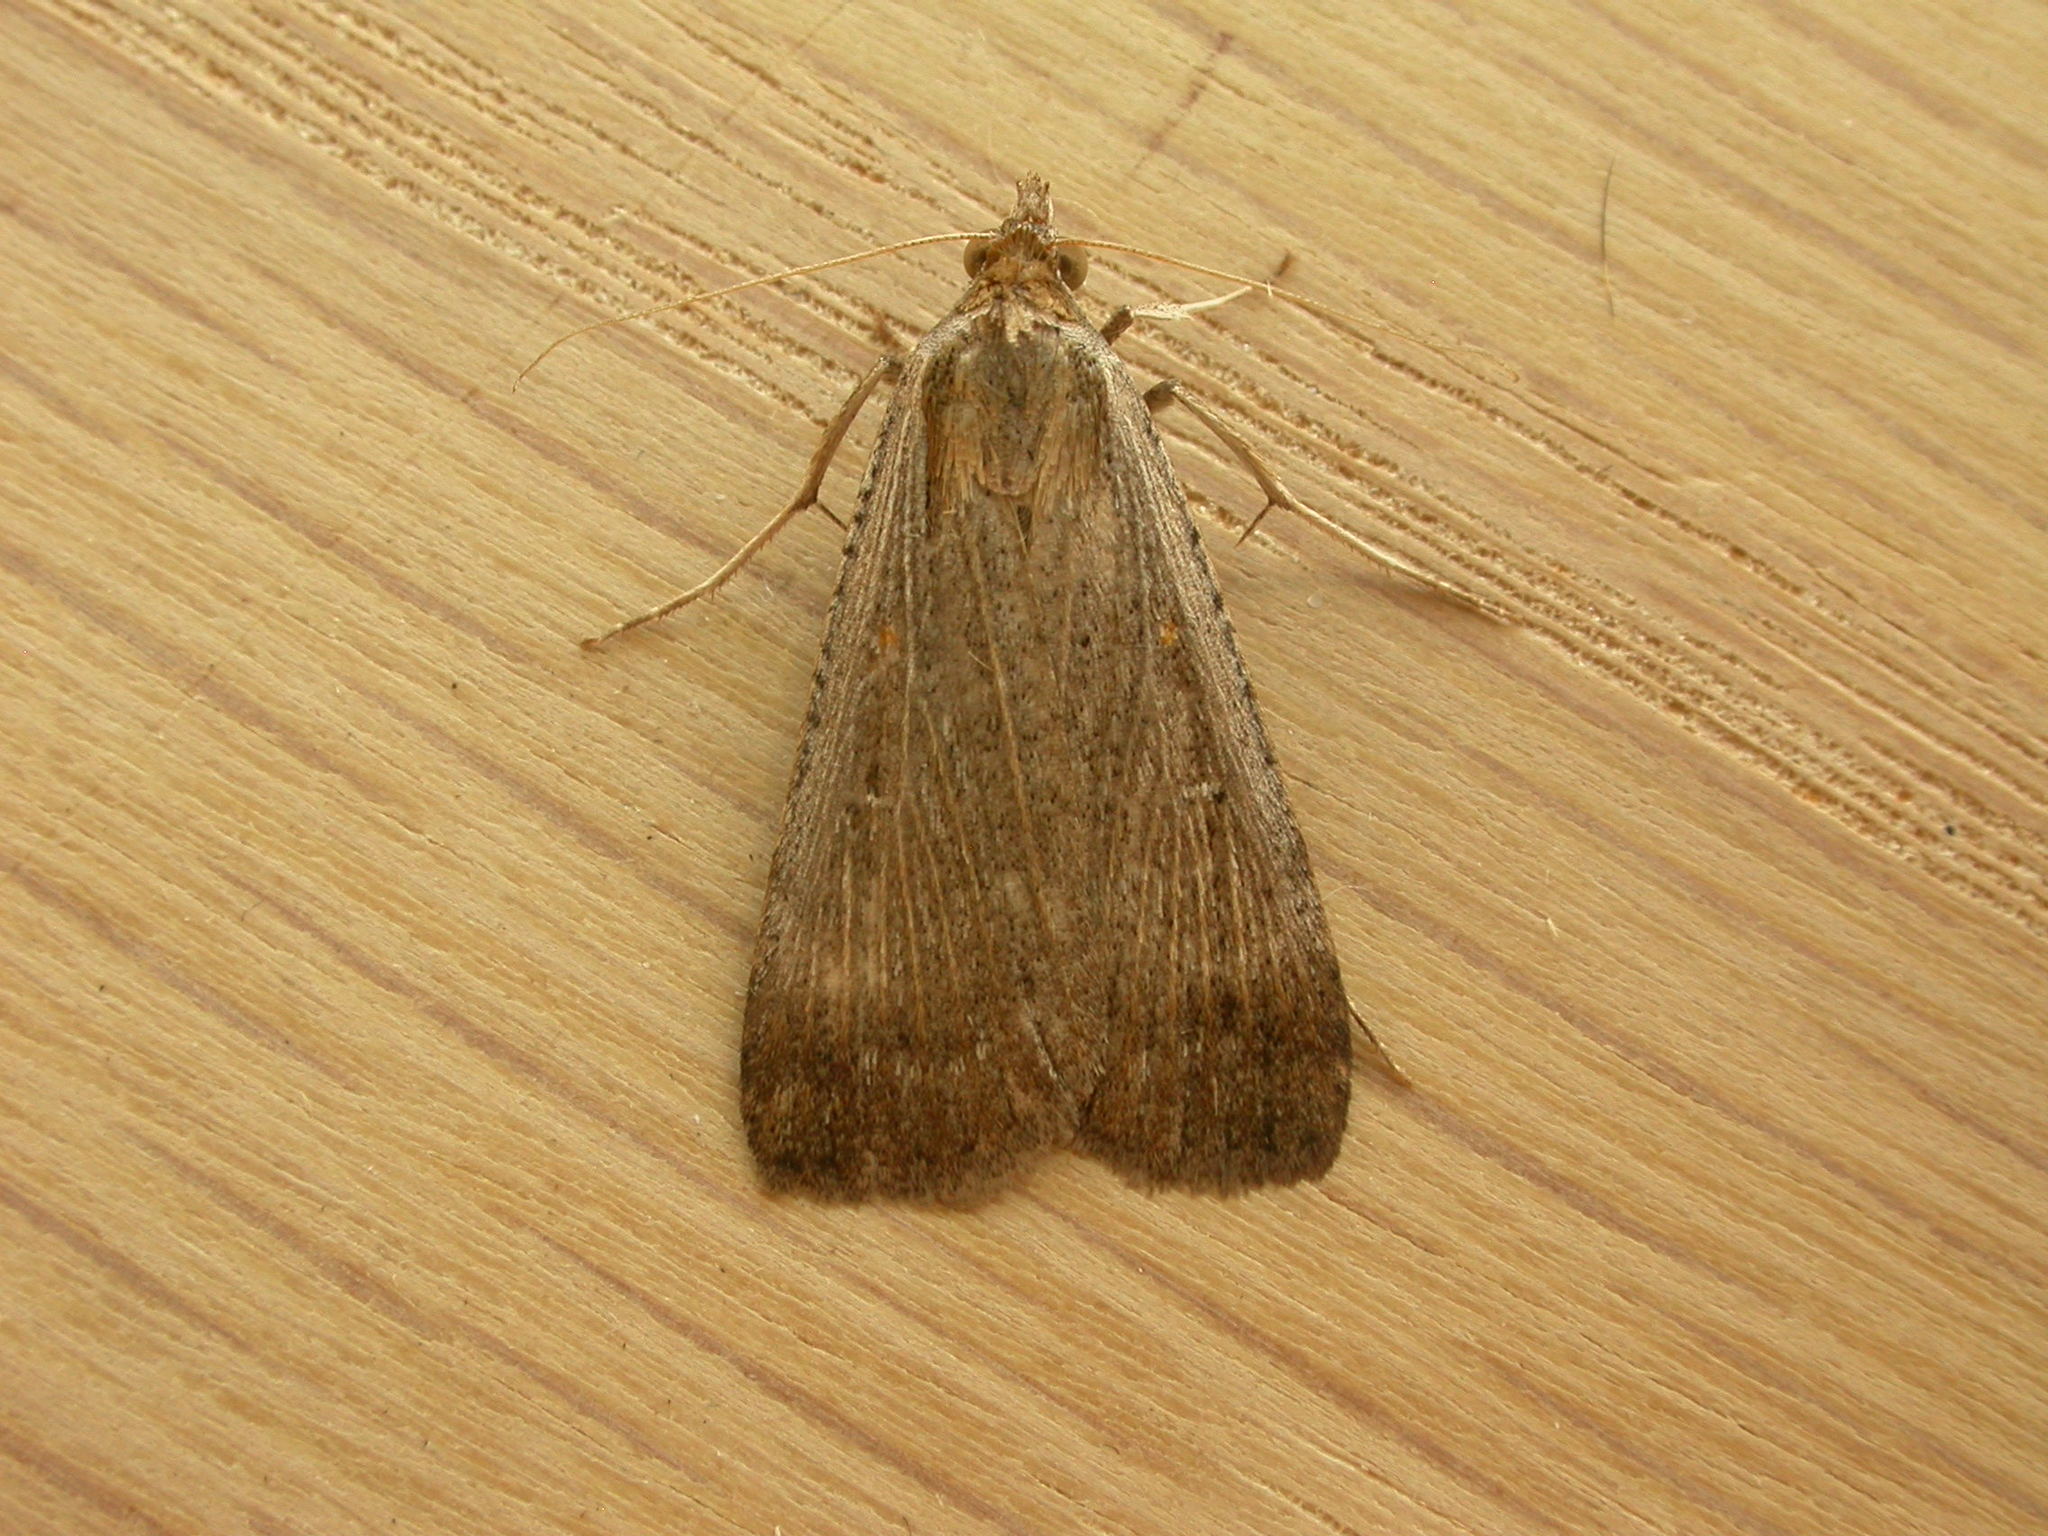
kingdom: Animalia
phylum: Arthropoda
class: Insecta
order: Lepidoptera
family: Noctuidae
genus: Tathorhynchus
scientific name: Tathorhynchus fallax
